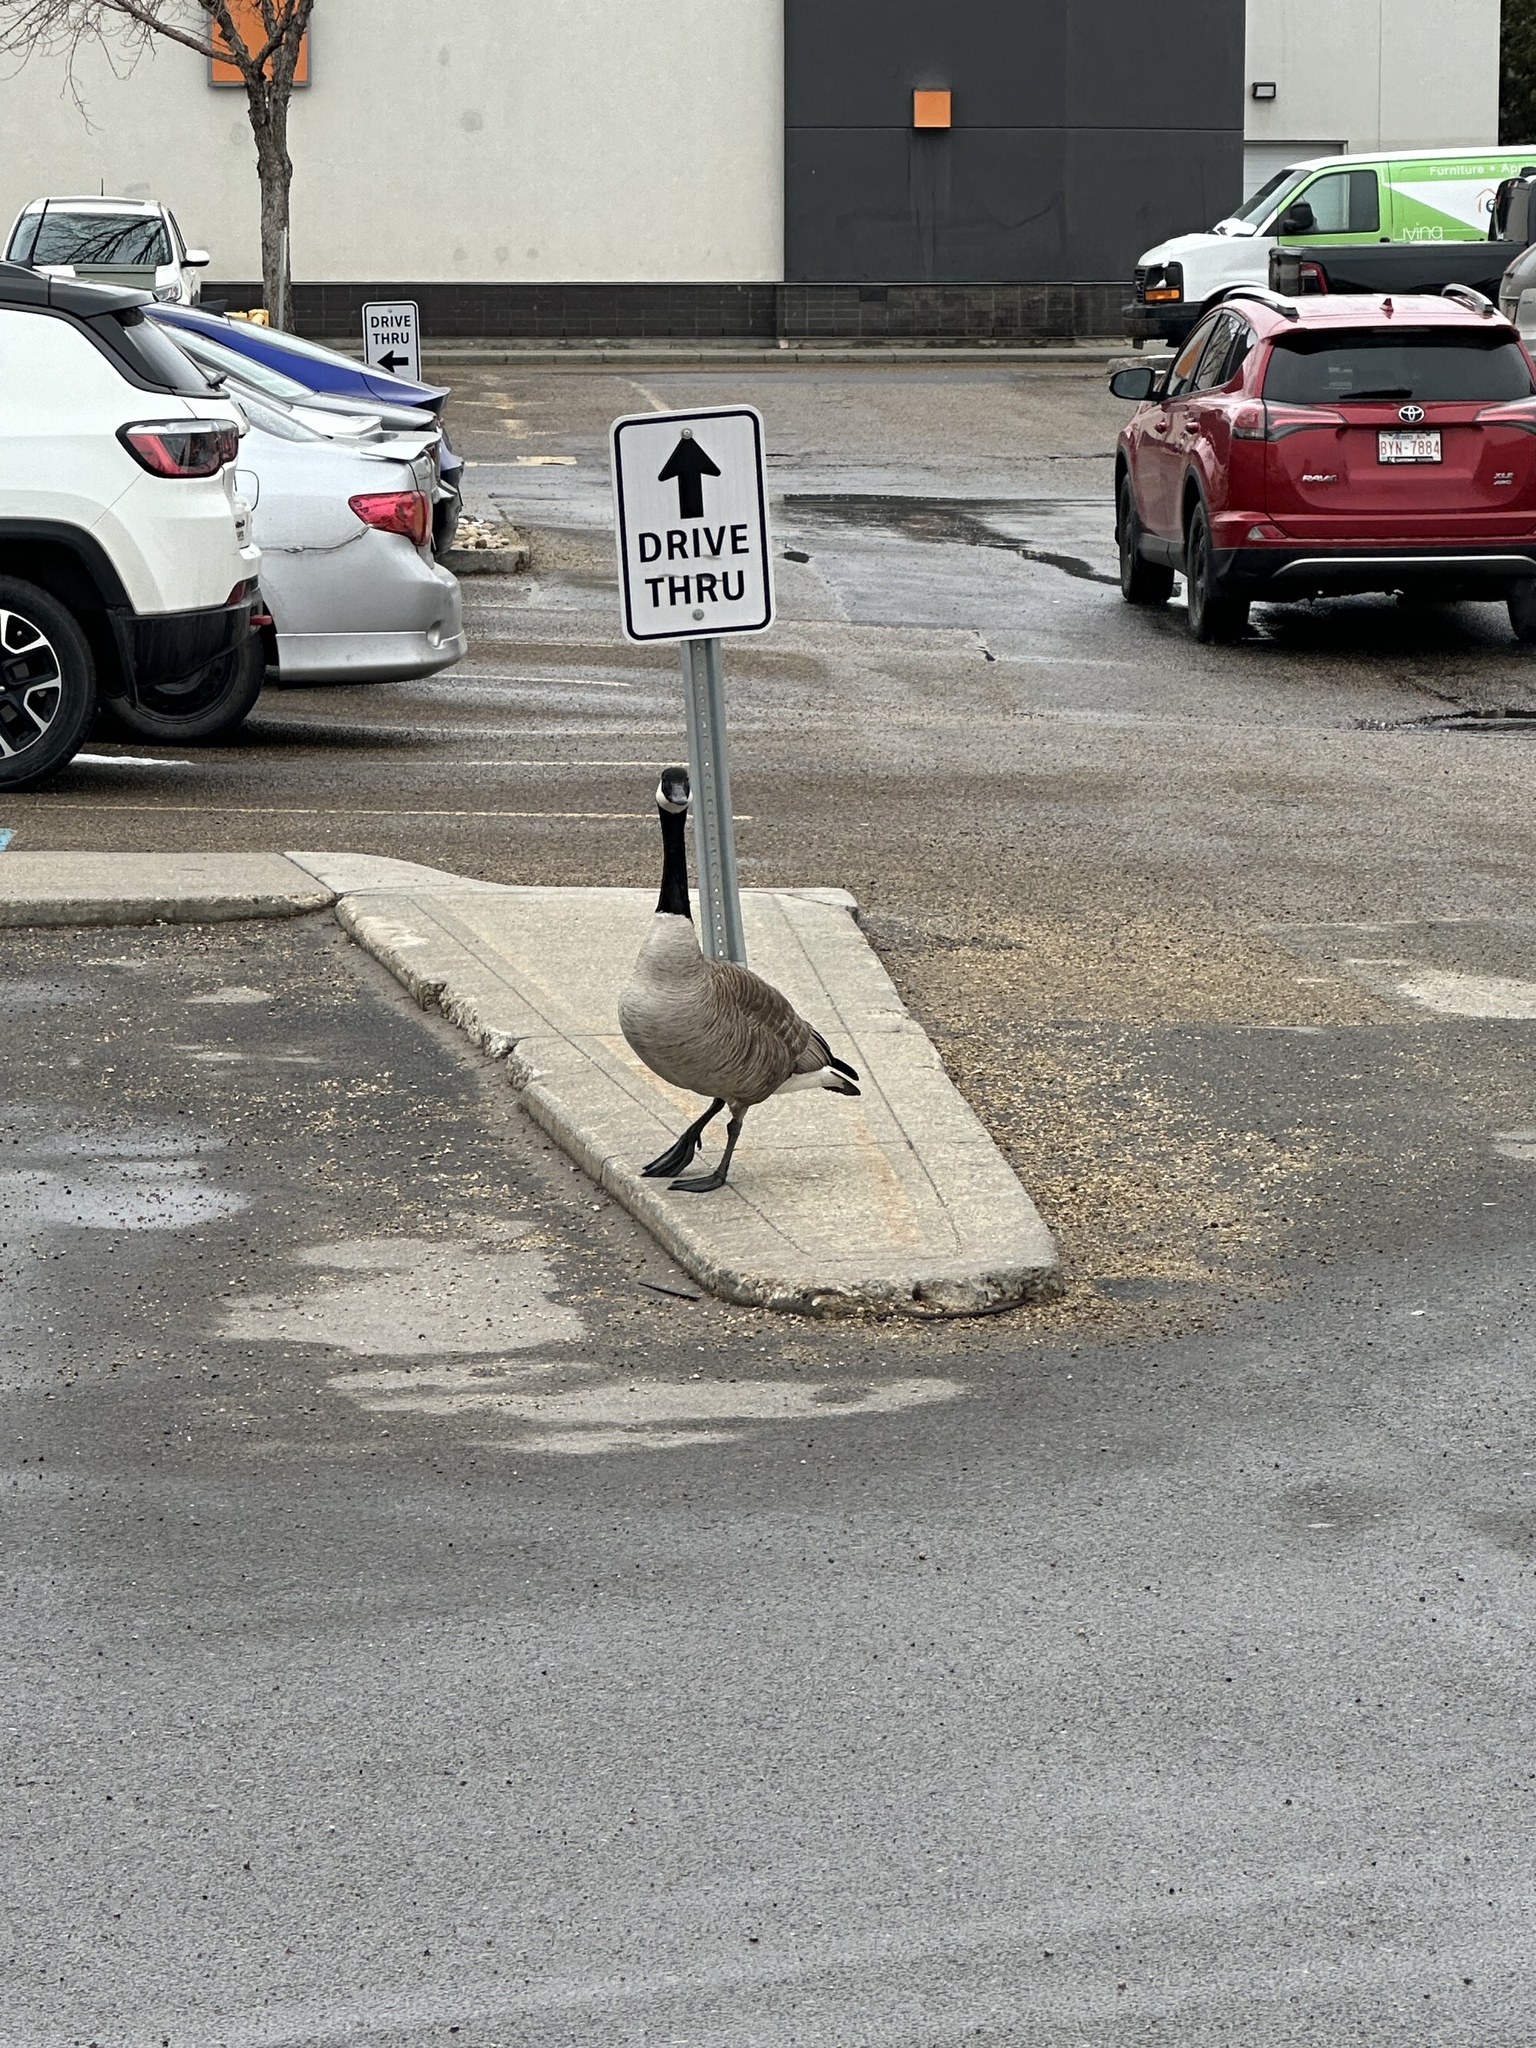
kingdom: Animalia
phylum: Chordata
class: Aves
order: Anseriformes
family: Anatidae
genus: Branta
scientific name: Branta canadensis
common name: Canada goose
